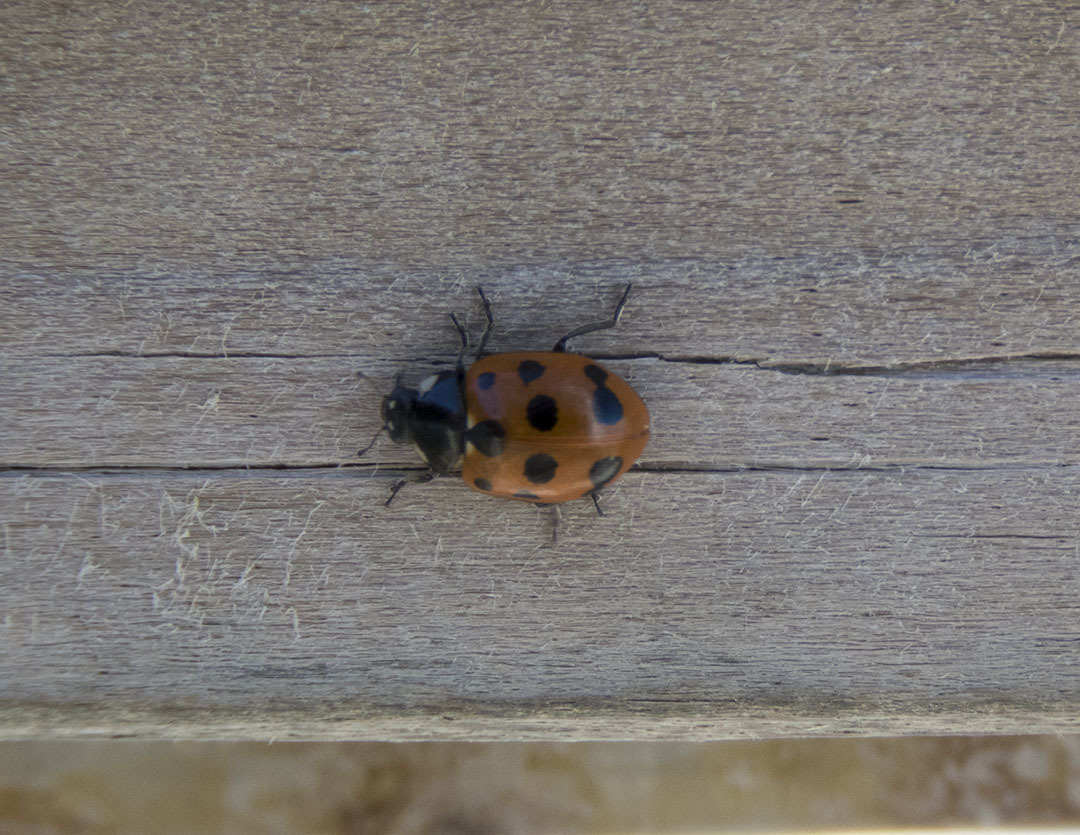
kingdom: Animalia
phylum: Arthropoda
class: Insecta
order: Coleoptera
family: Coccinellidae
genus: Coccinella
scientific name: Coccinella undecimpunctata
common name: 11-spot ladybird
